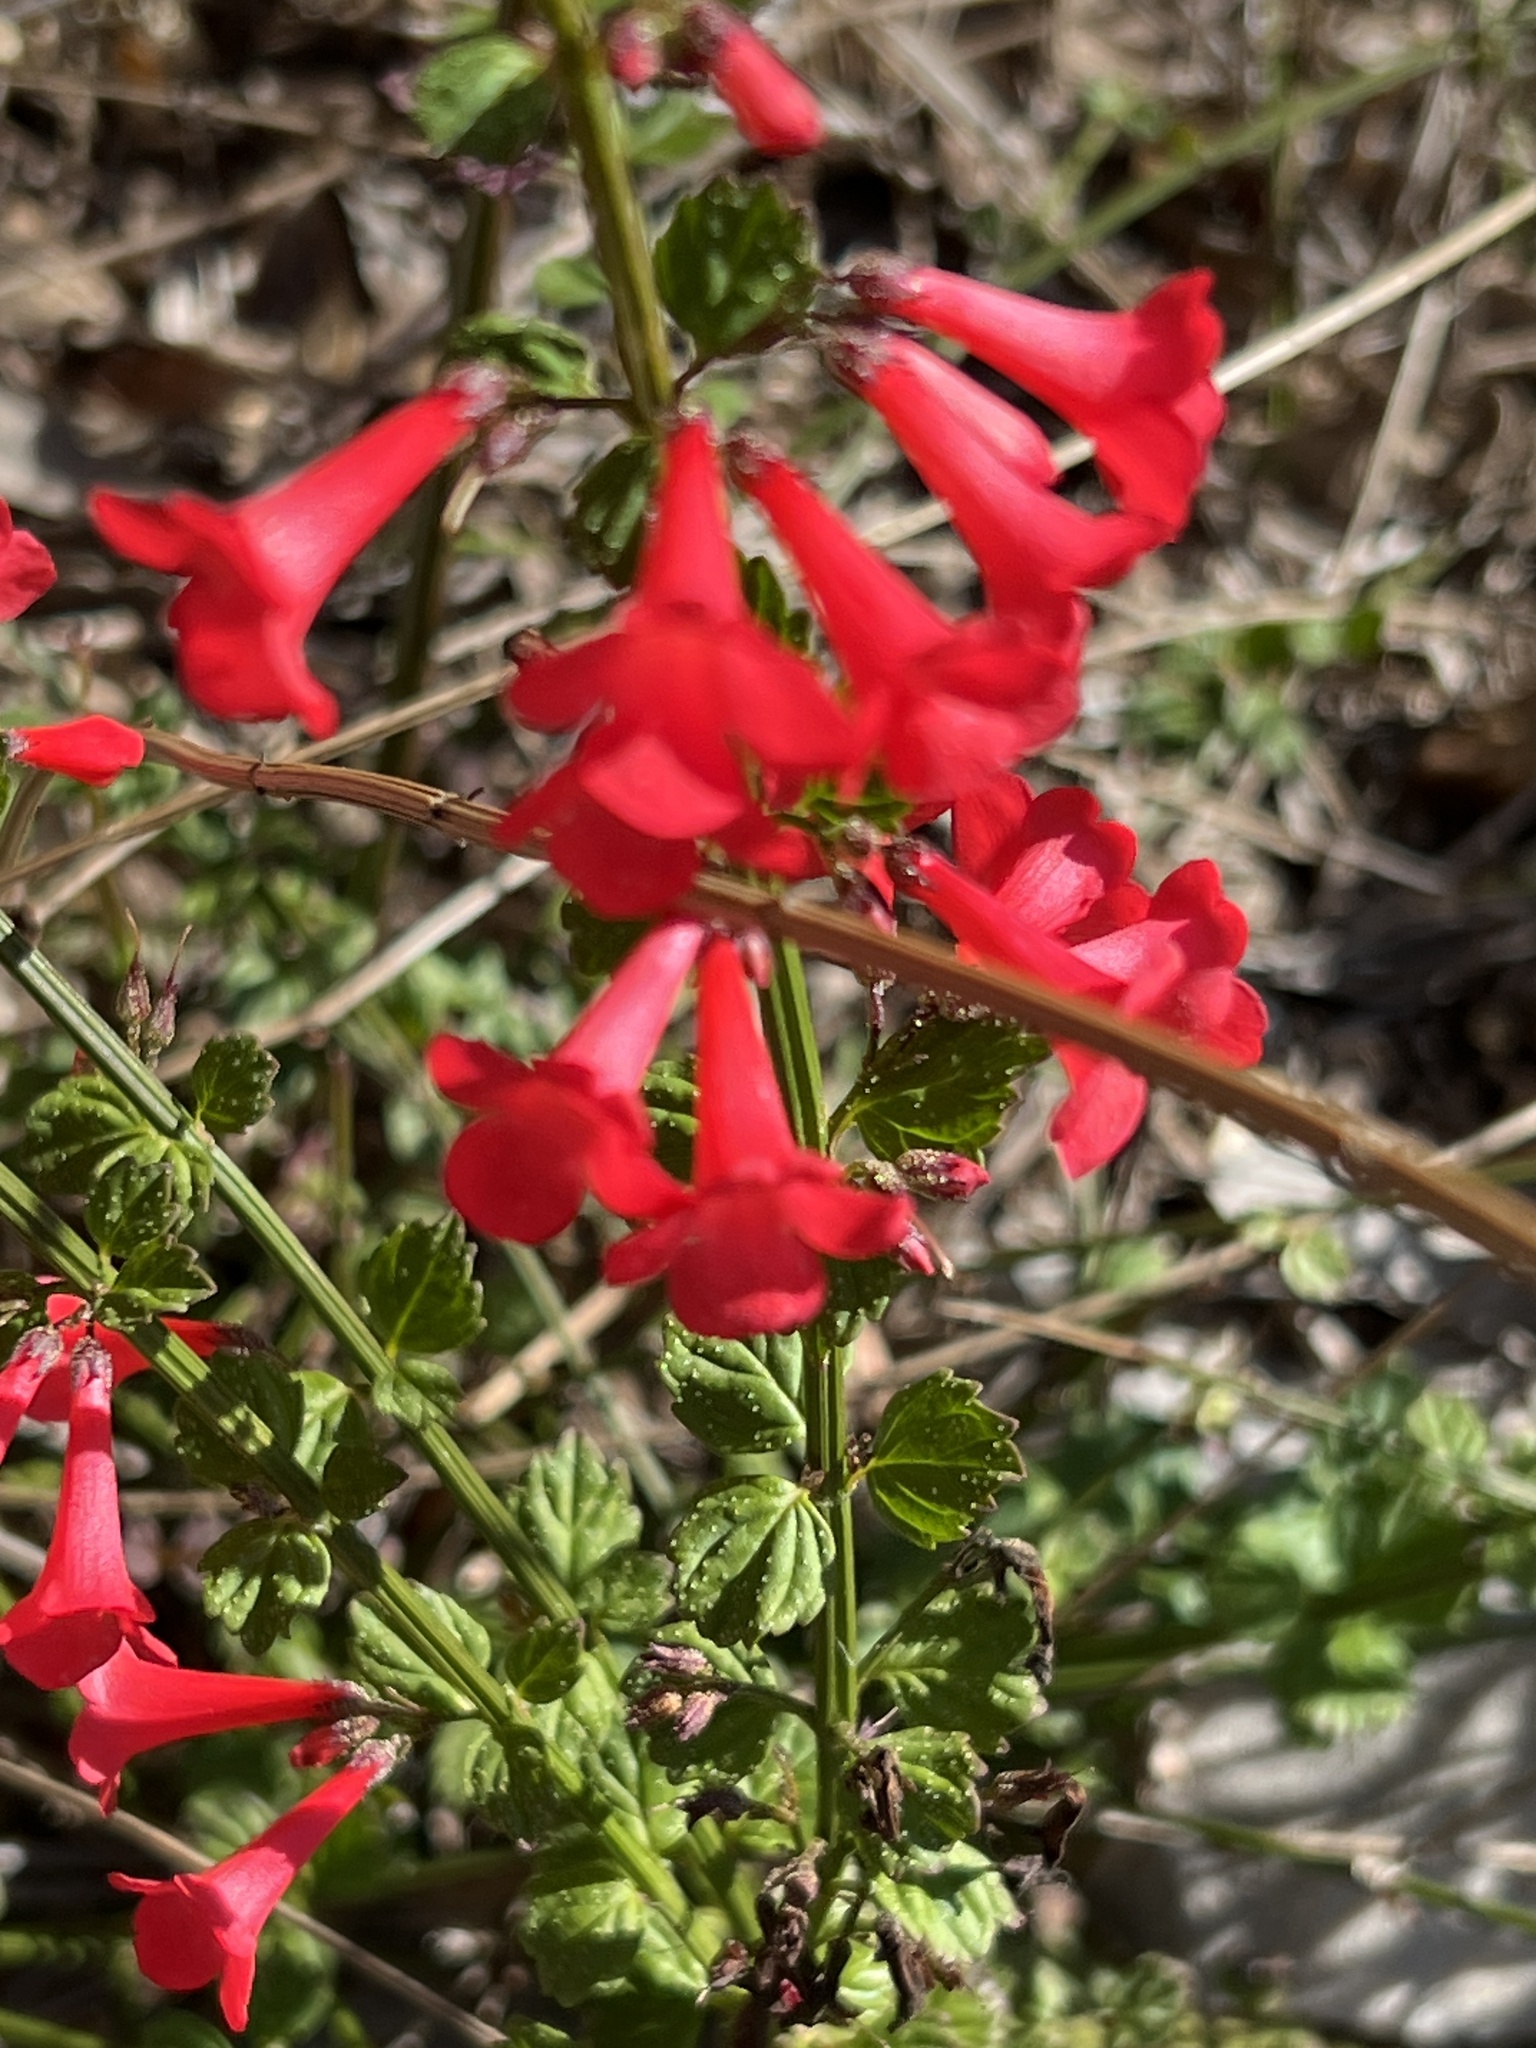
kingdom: Plantae
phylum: Tracheophyta
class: Magnoliopsida
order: Lamiales
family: Lamiaceae
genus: Salvia
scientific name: Salvia coccinea
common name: Blood sage
